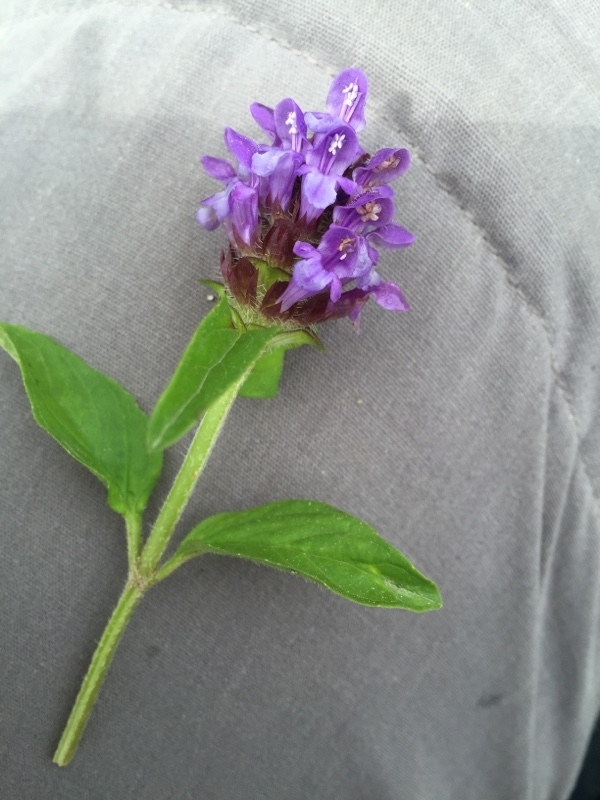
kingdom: Plantae
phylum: Tracheophyta
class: Magnoliopsida
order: Lamiales
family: Lamiaceae
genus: Prunella
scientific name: Prunella vulgaris
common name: Heal-all
